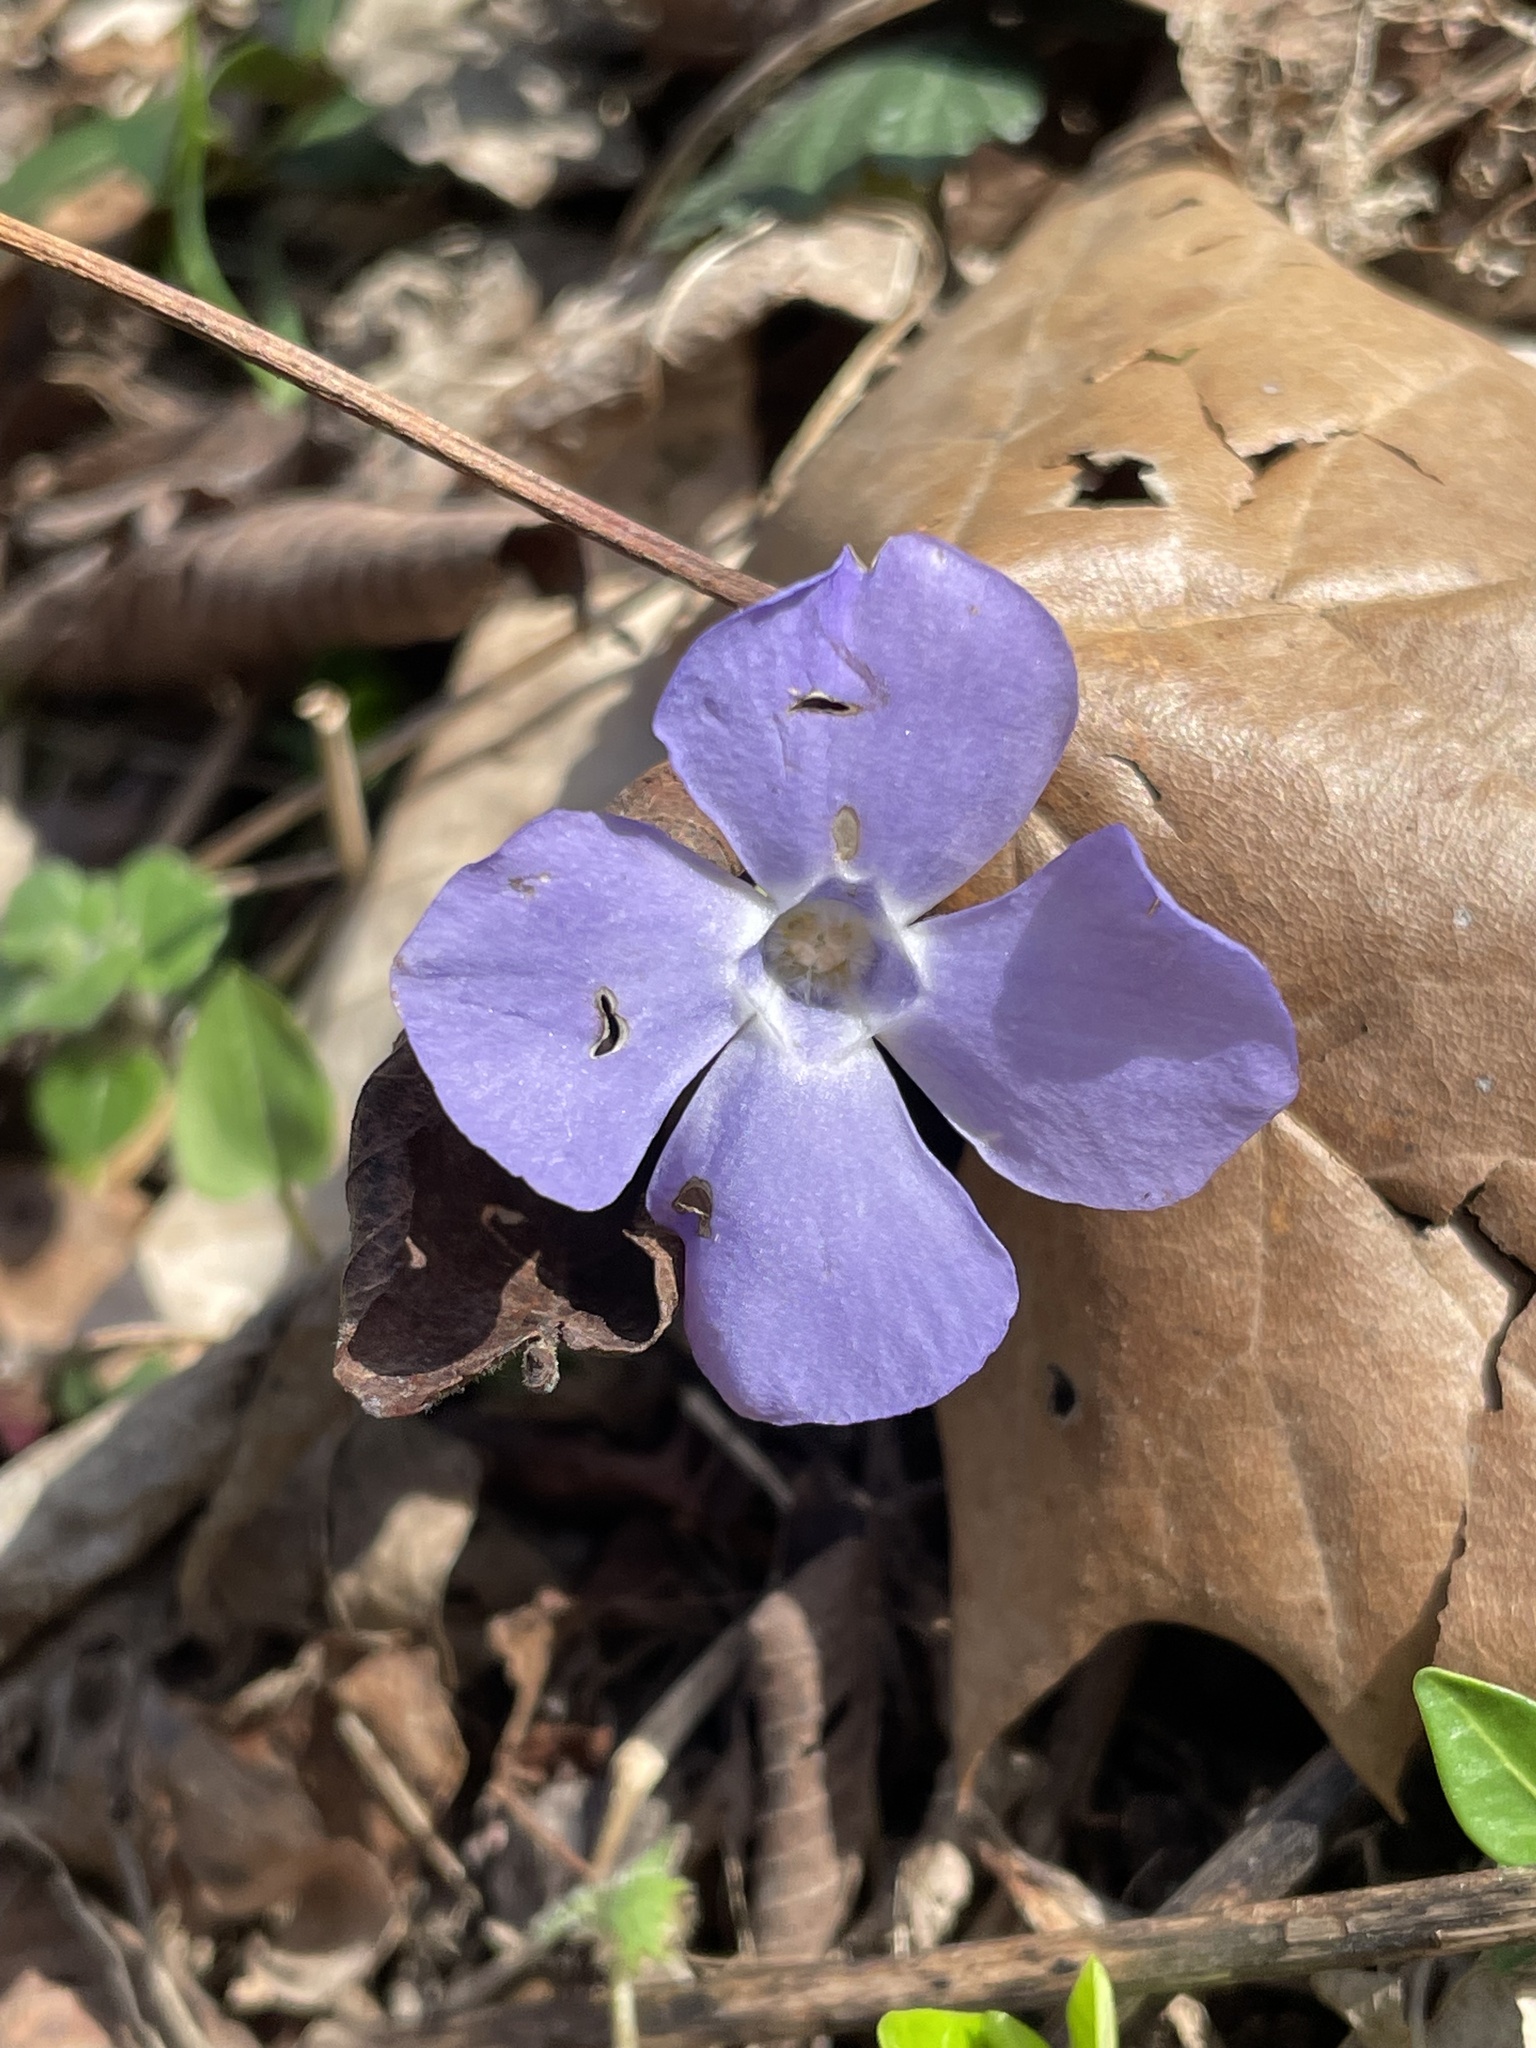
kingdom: Plantae
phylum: Tracheophyta
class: Magnoliopsida
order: Gentianales
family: Apocynaceae
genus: Vinca
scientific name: Vinca minor
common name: Lesser periwinkle
